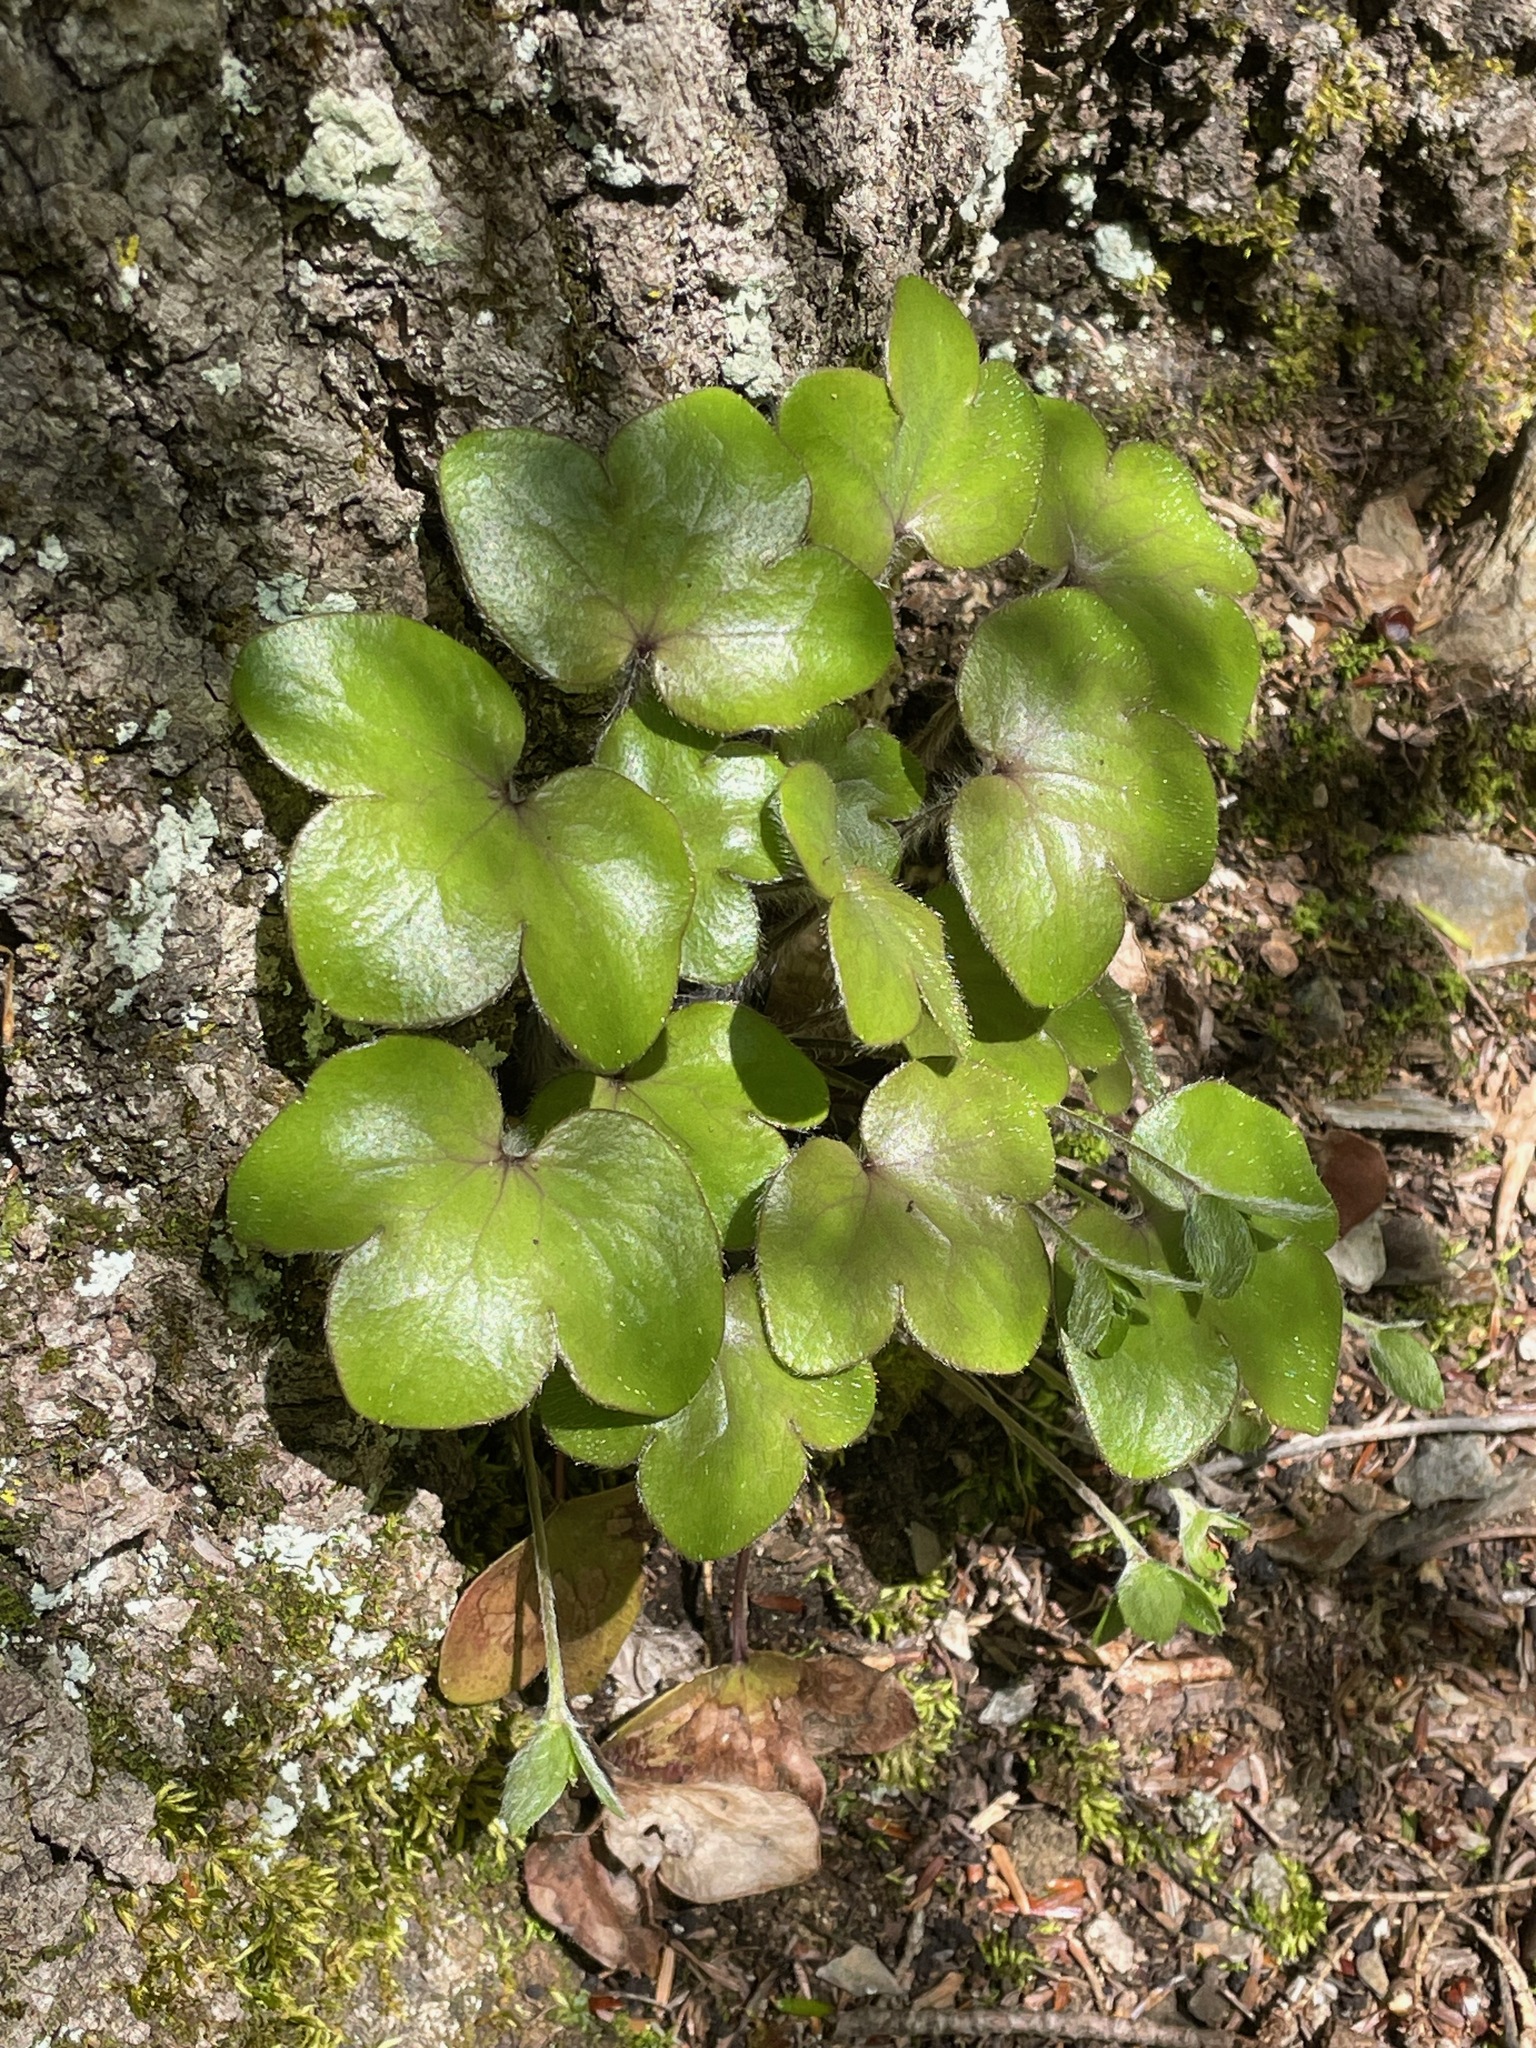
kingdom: Plantae
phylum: Tracheophyta
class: Magnoliopsida
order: Ranunculales
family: Ranunculaceae
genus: Hepatica
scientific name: Hepatica americana
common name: American hepatica
